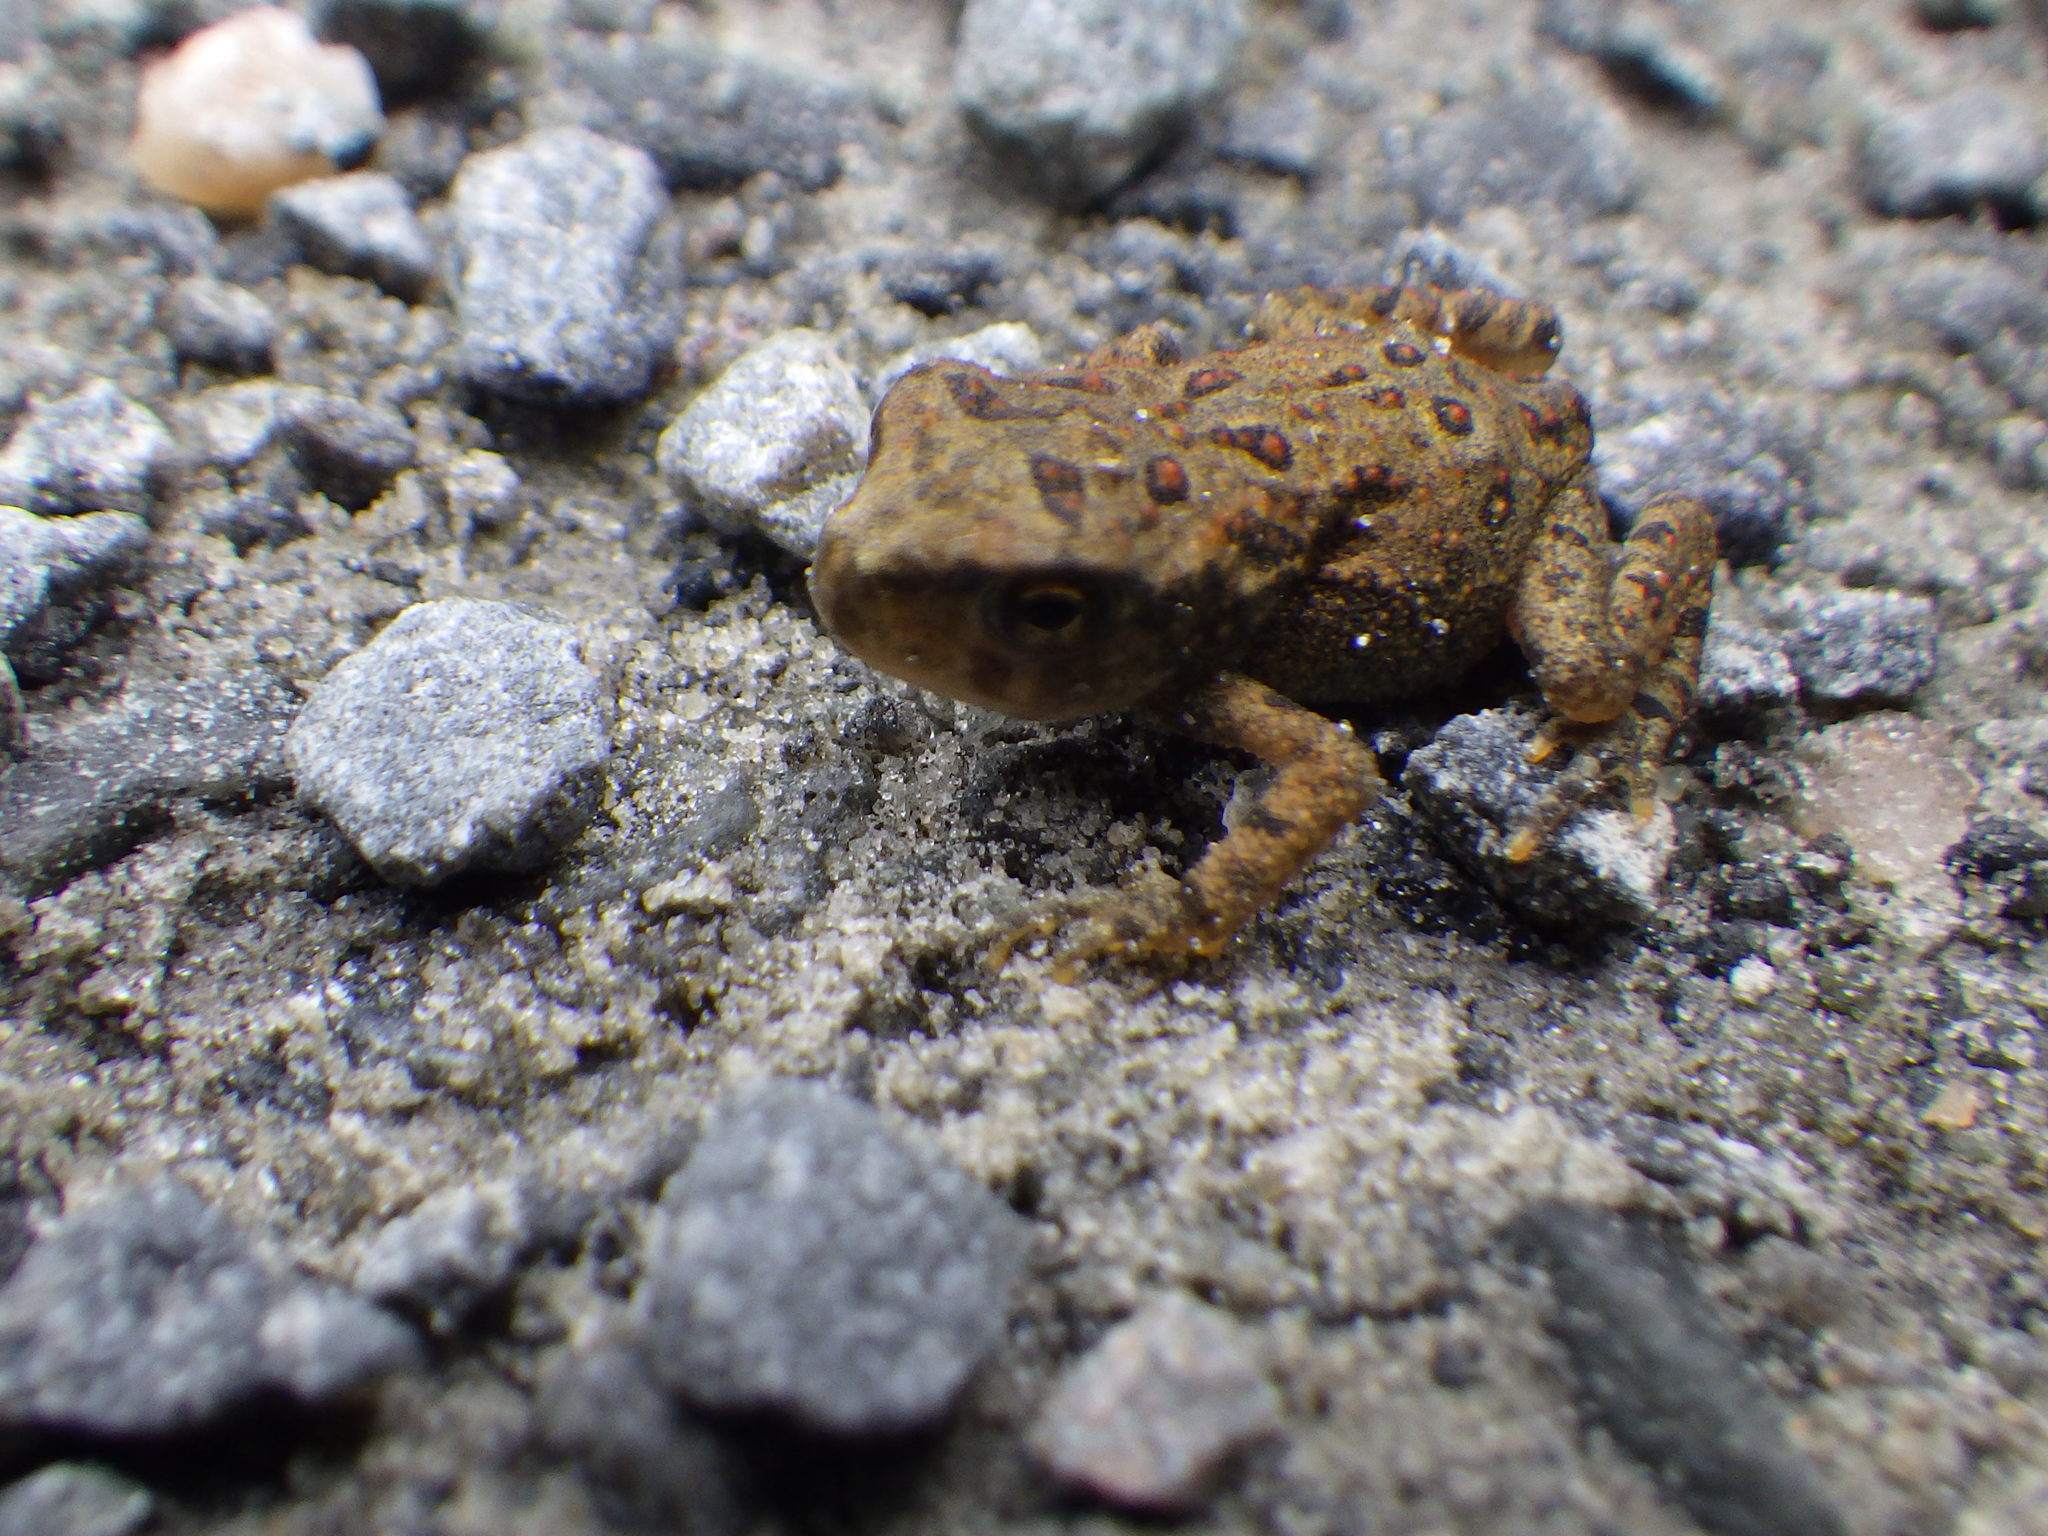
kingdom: Animalia
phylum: Chordata
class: Amphibia
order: Anura
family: Bufonidae
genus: Anaxyrus
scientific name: Anaxyrus americanus
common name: American toad
